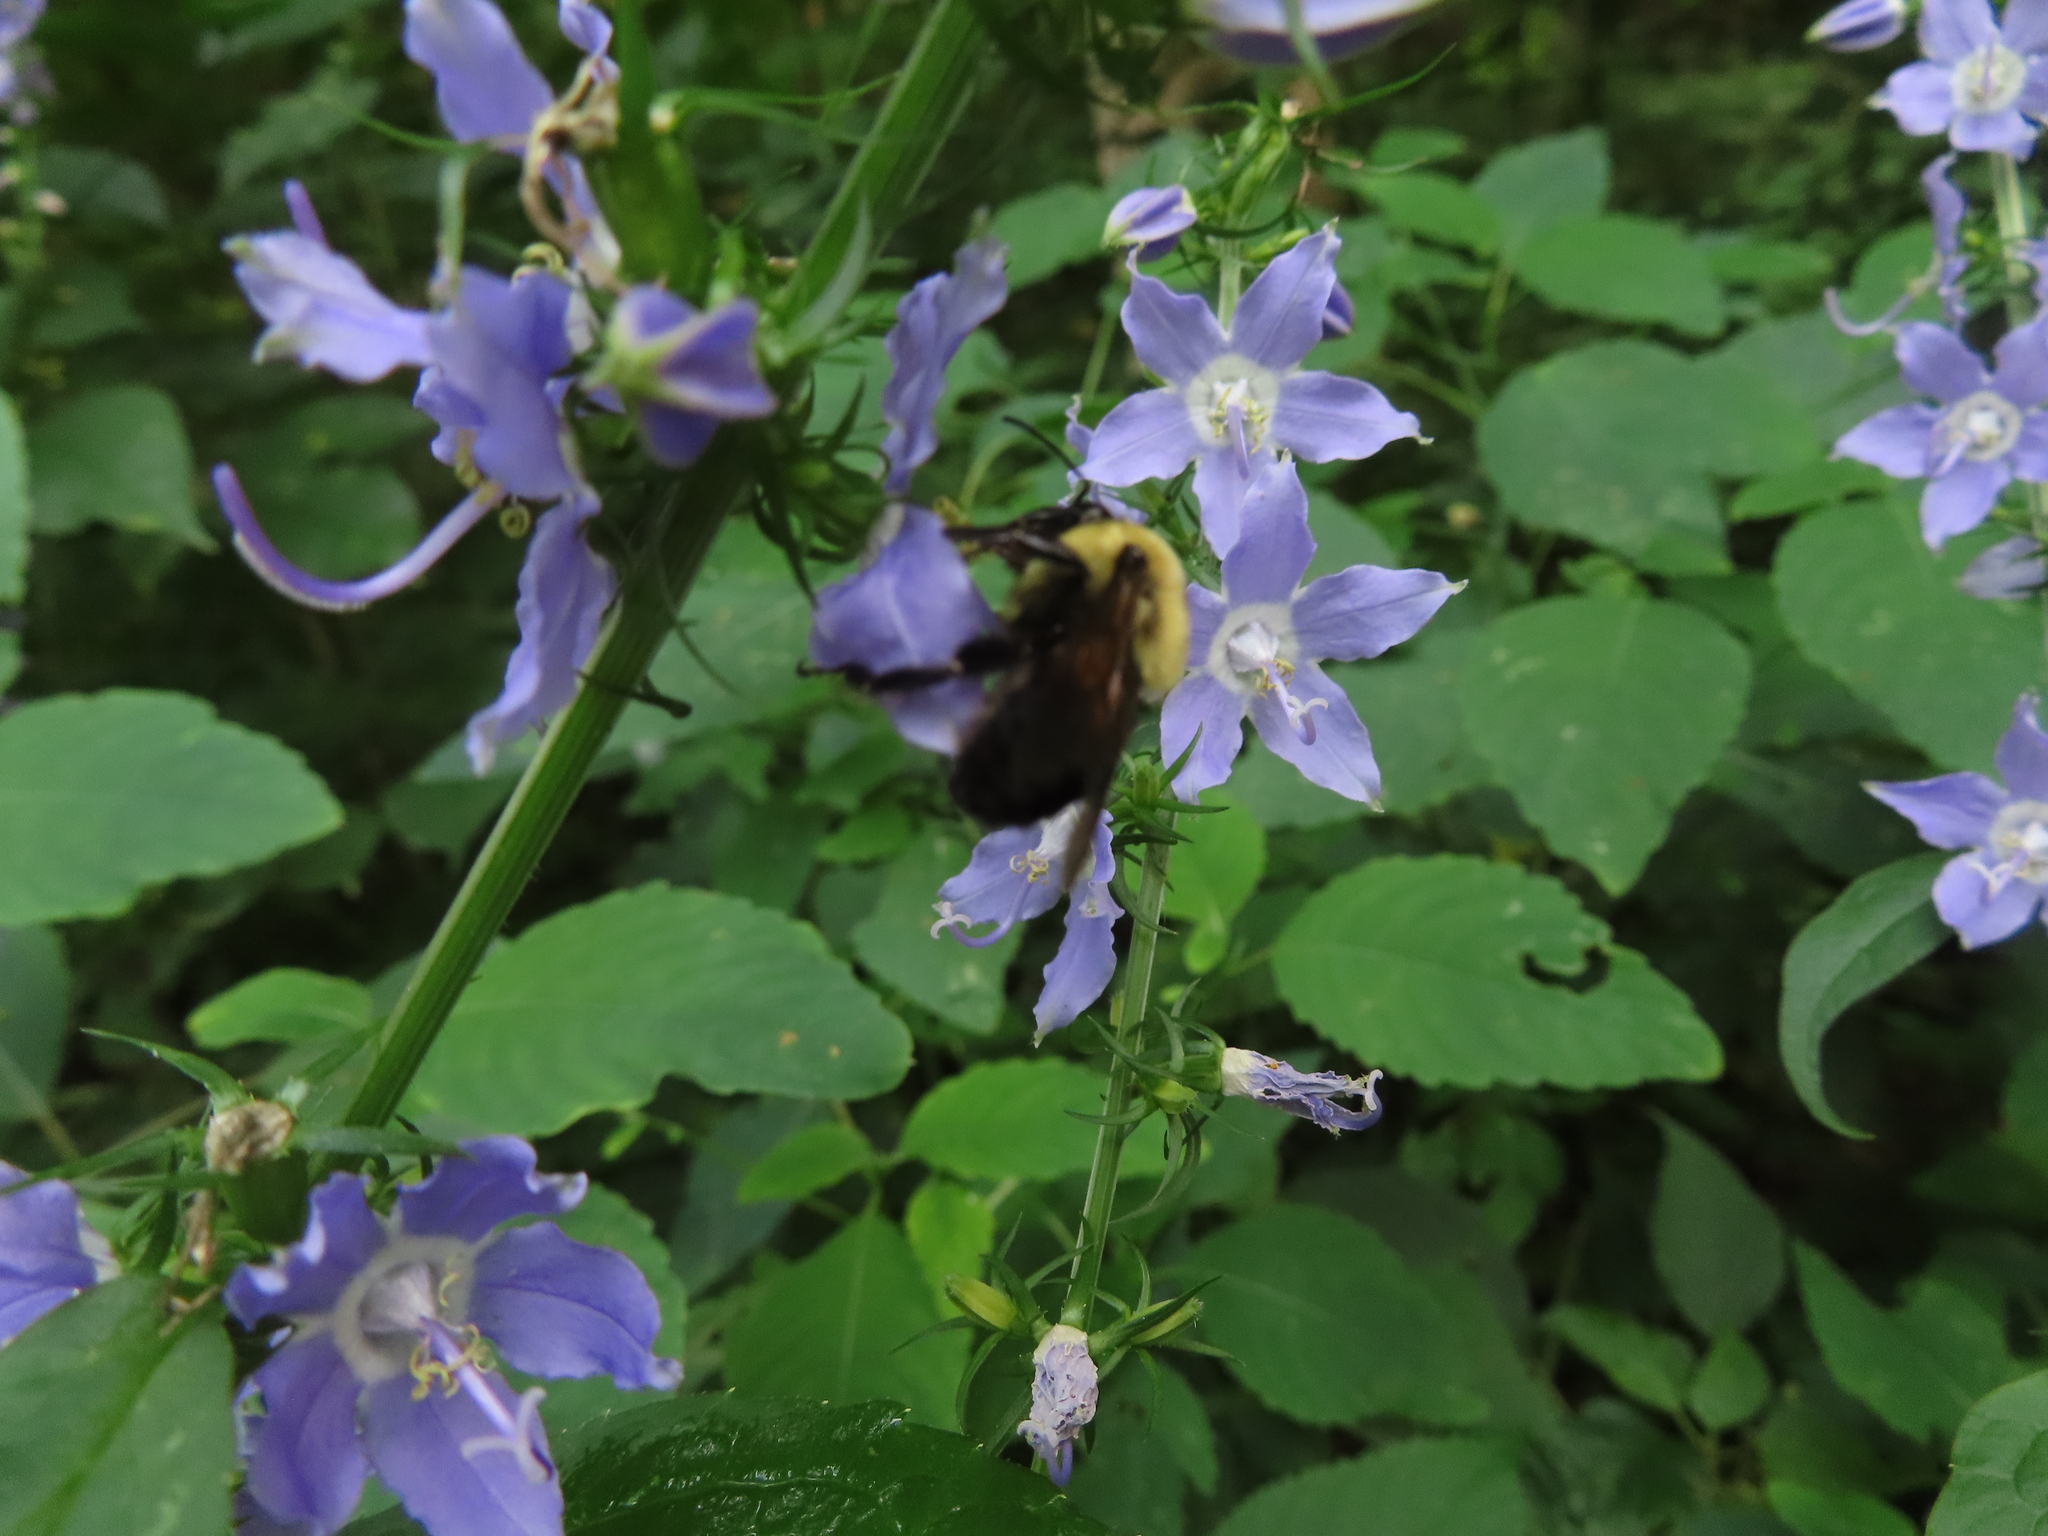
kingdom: Animalia
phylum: Arthropoda
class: Insecta
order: Hymenoptera
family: Apidae
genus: Bombus
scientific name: Bombus
